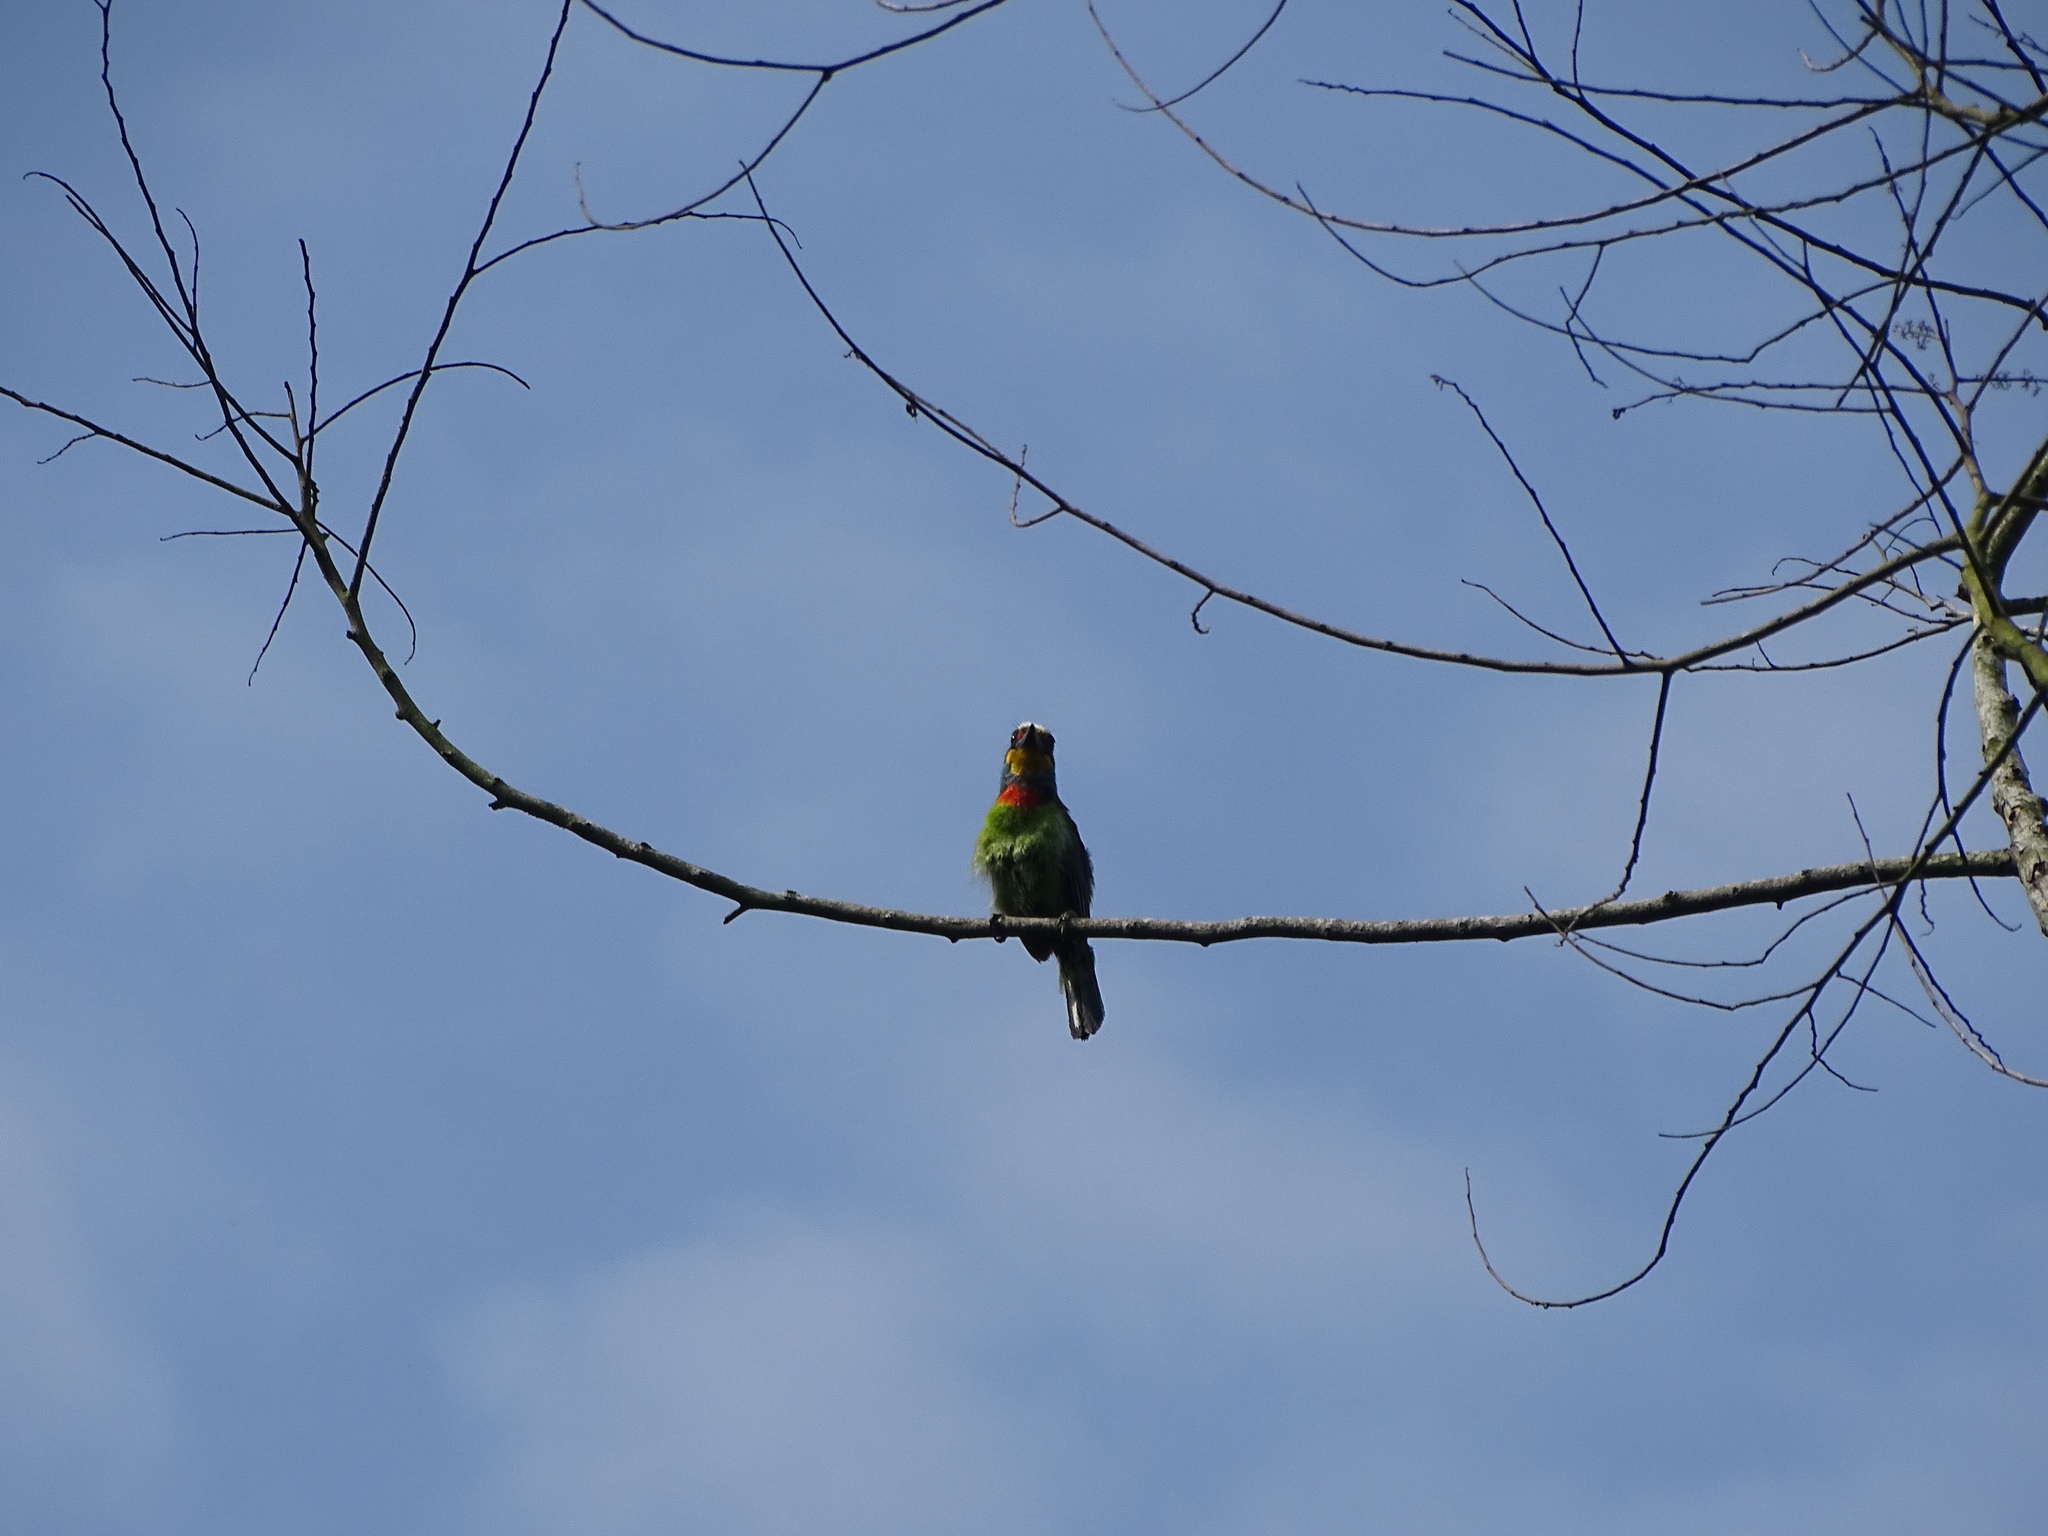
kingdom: Animalia
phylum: Chordata
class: Aves
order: Piciformes
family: Megalaimidae
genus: Psilopogon
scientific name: Psilopogon nuchalis
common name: Taiwan barbet
